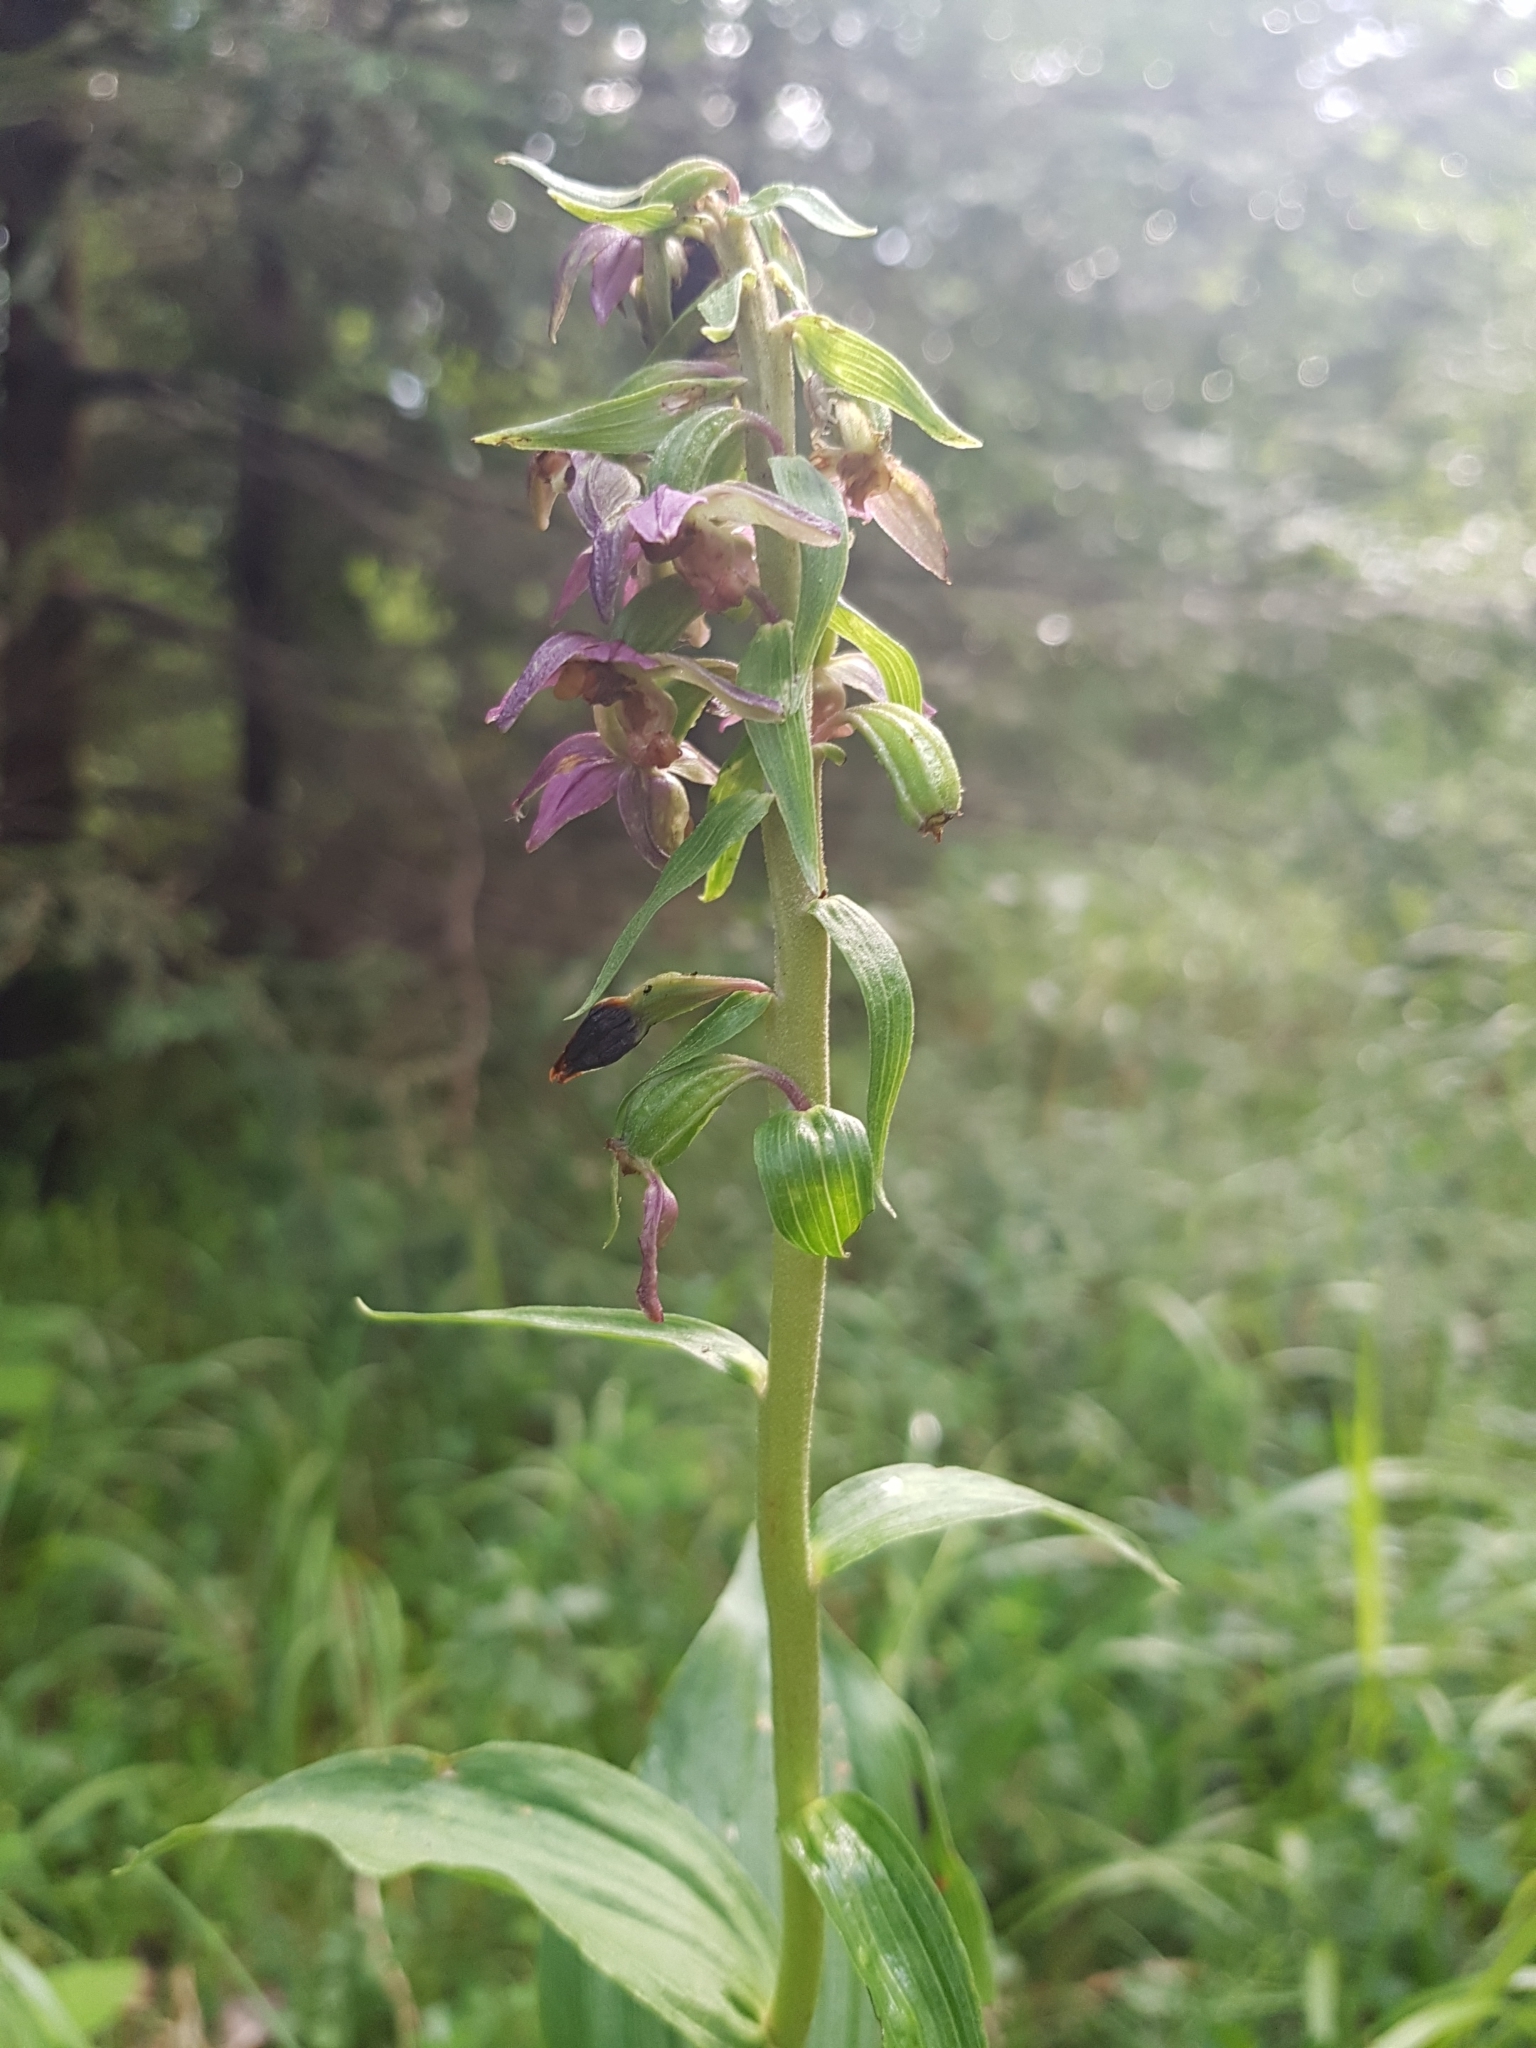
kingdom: Plantae
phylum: Tracheophyta
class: Liliopsida
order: Asparagales
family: Orchidaceae
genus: Epipactis
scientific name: Epipactis helleborine
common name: Broad-leaved helleborine
